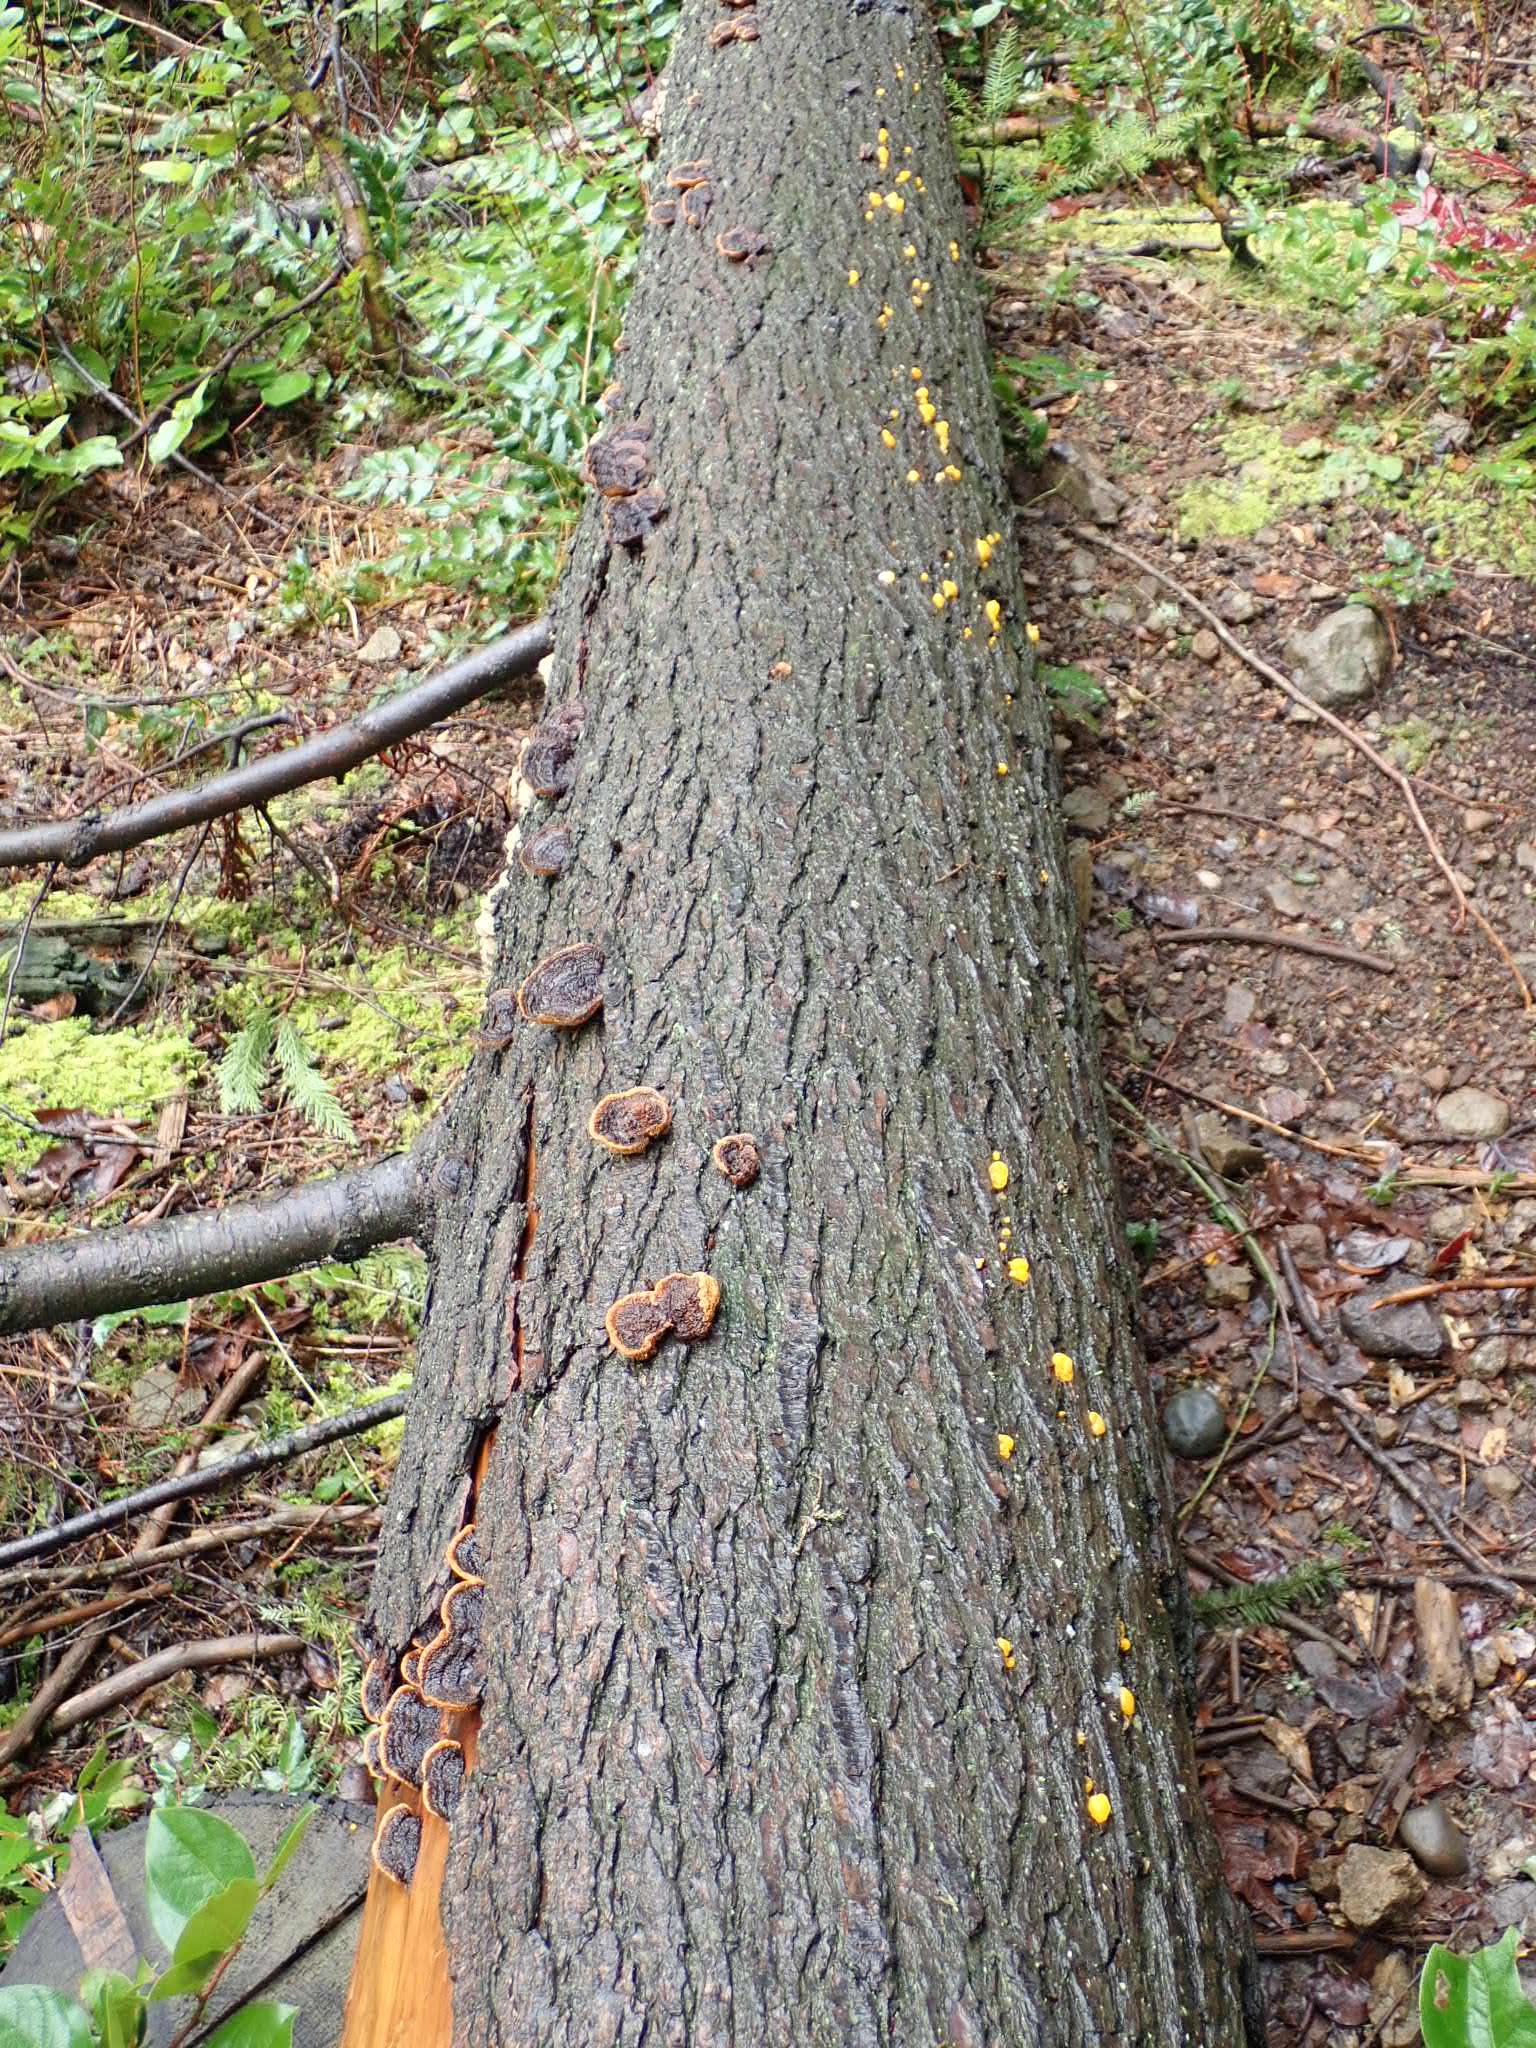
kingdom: Fungi
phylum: Basidiomycota
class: Agaricomycetes
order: Gloeophyllales
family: Gloeophyllaceae
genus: Gloeophyllum
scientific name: Gloeophyllum sepiarium
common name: Conifer mazegill
